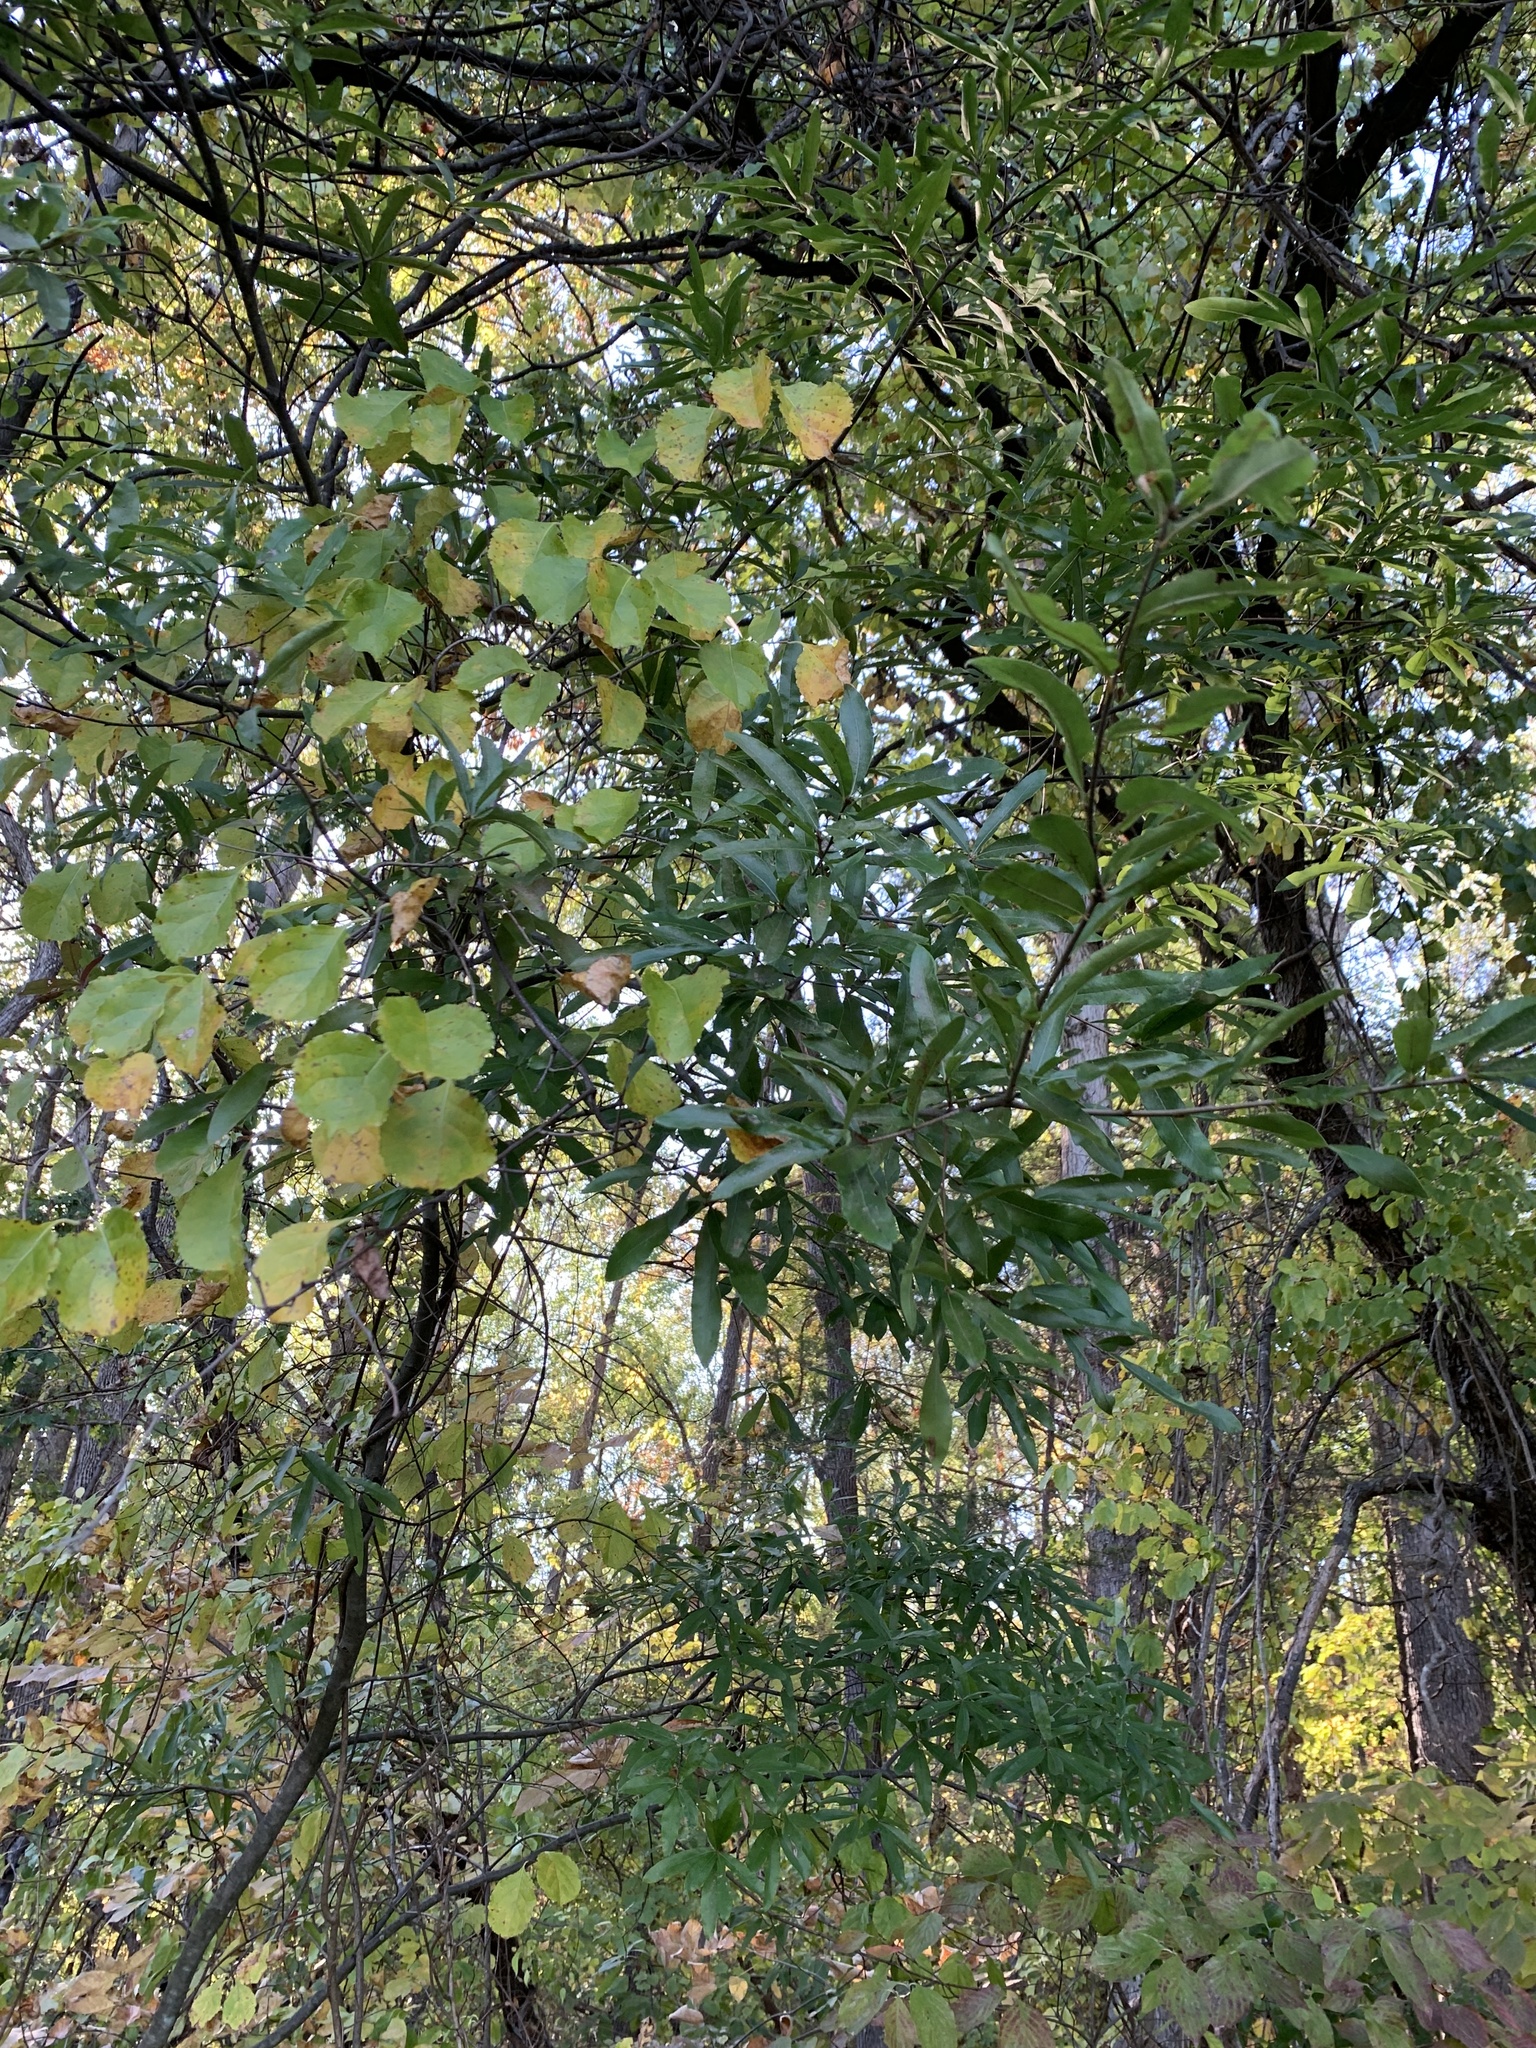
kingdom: Plantae
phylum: Tracheophyta
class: Magnoliopsida
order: Fagales
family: Fagaceae
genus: Quercus
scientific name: Quercus phellos
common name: Willow oak
